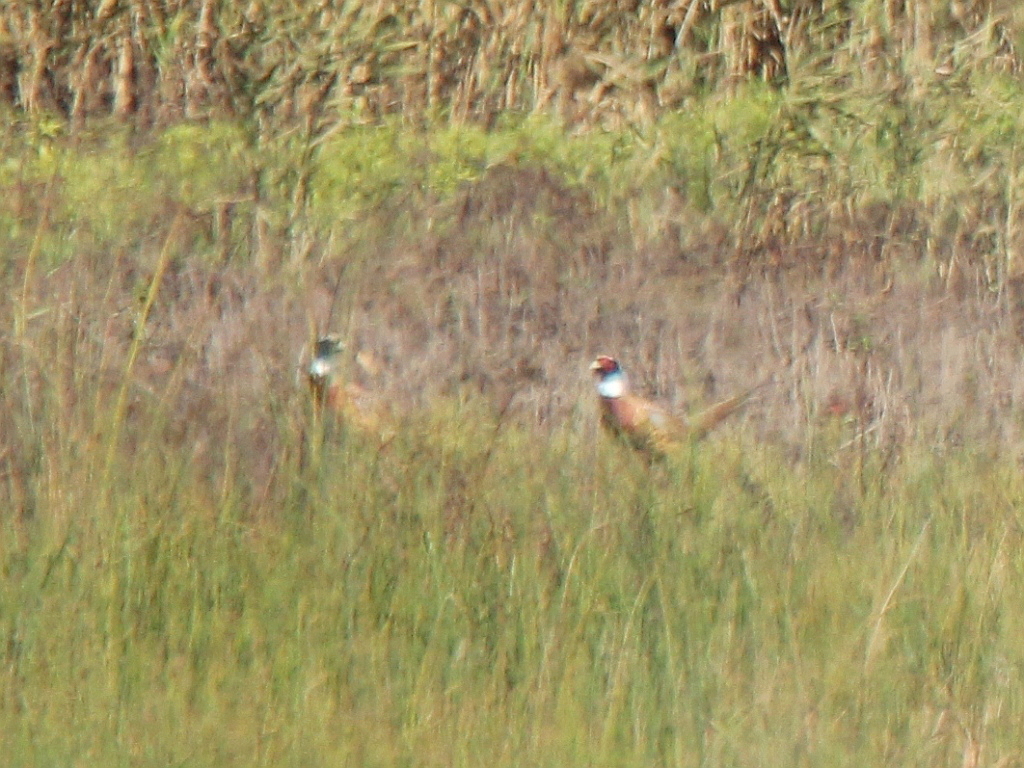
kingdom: Animalia
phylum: Chordata
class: Aves
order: Galliformes
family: Phasianidae
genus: Phasianus
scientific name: Phasianus colchicus
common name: Common pheasant
